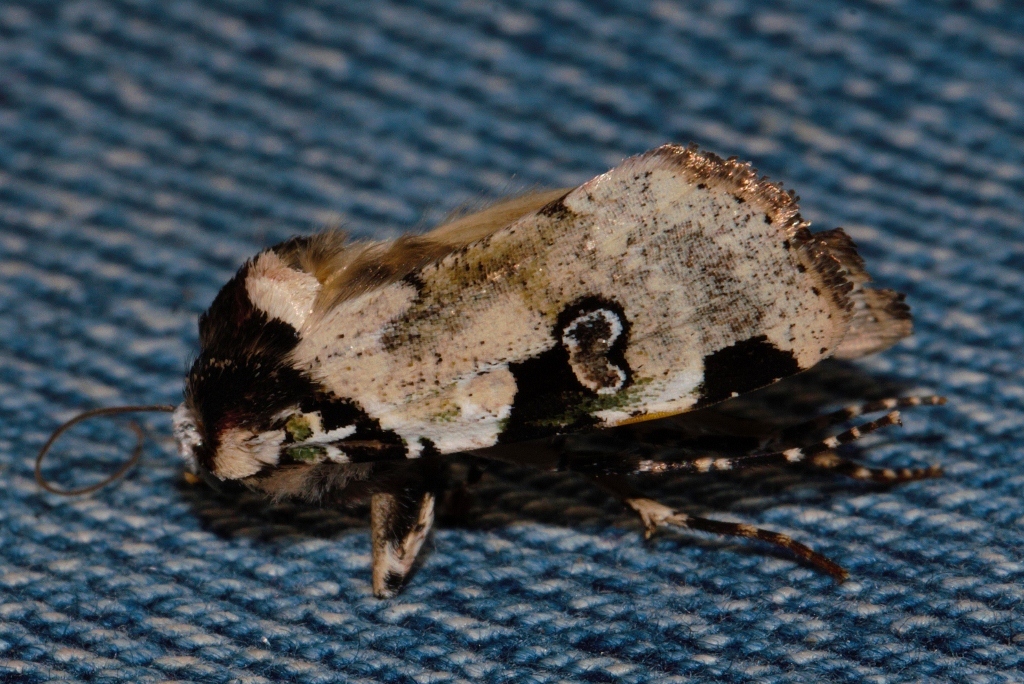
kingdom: Animalia
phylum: Arthropoda
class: Insecta
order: Lepidoptera
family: Noctuidae
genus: Mentaxya
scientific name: Mentaxya albifrons
